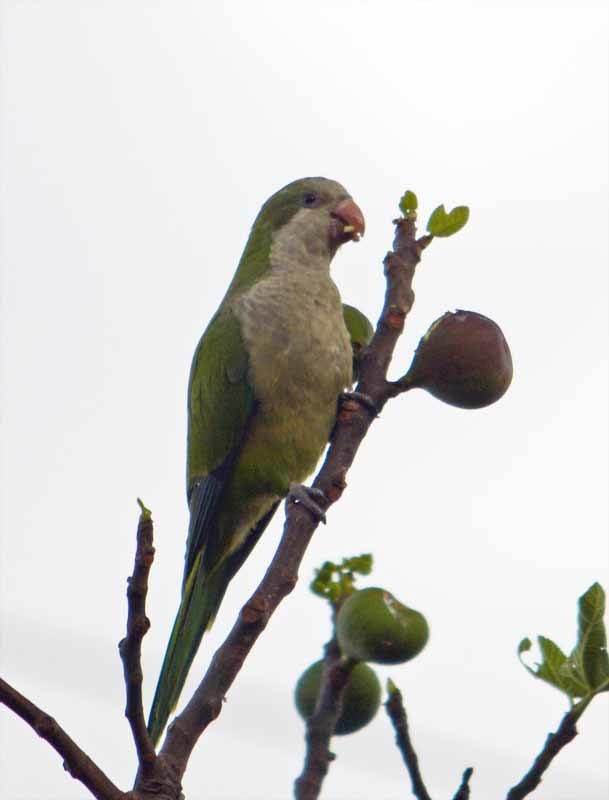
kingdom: Animalia
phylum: Chordata
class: Aves
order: Psittaciformes
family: Psittacidae
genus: Myiopsitta
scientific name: Myiopsitta monachus
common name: Monk parakeet
